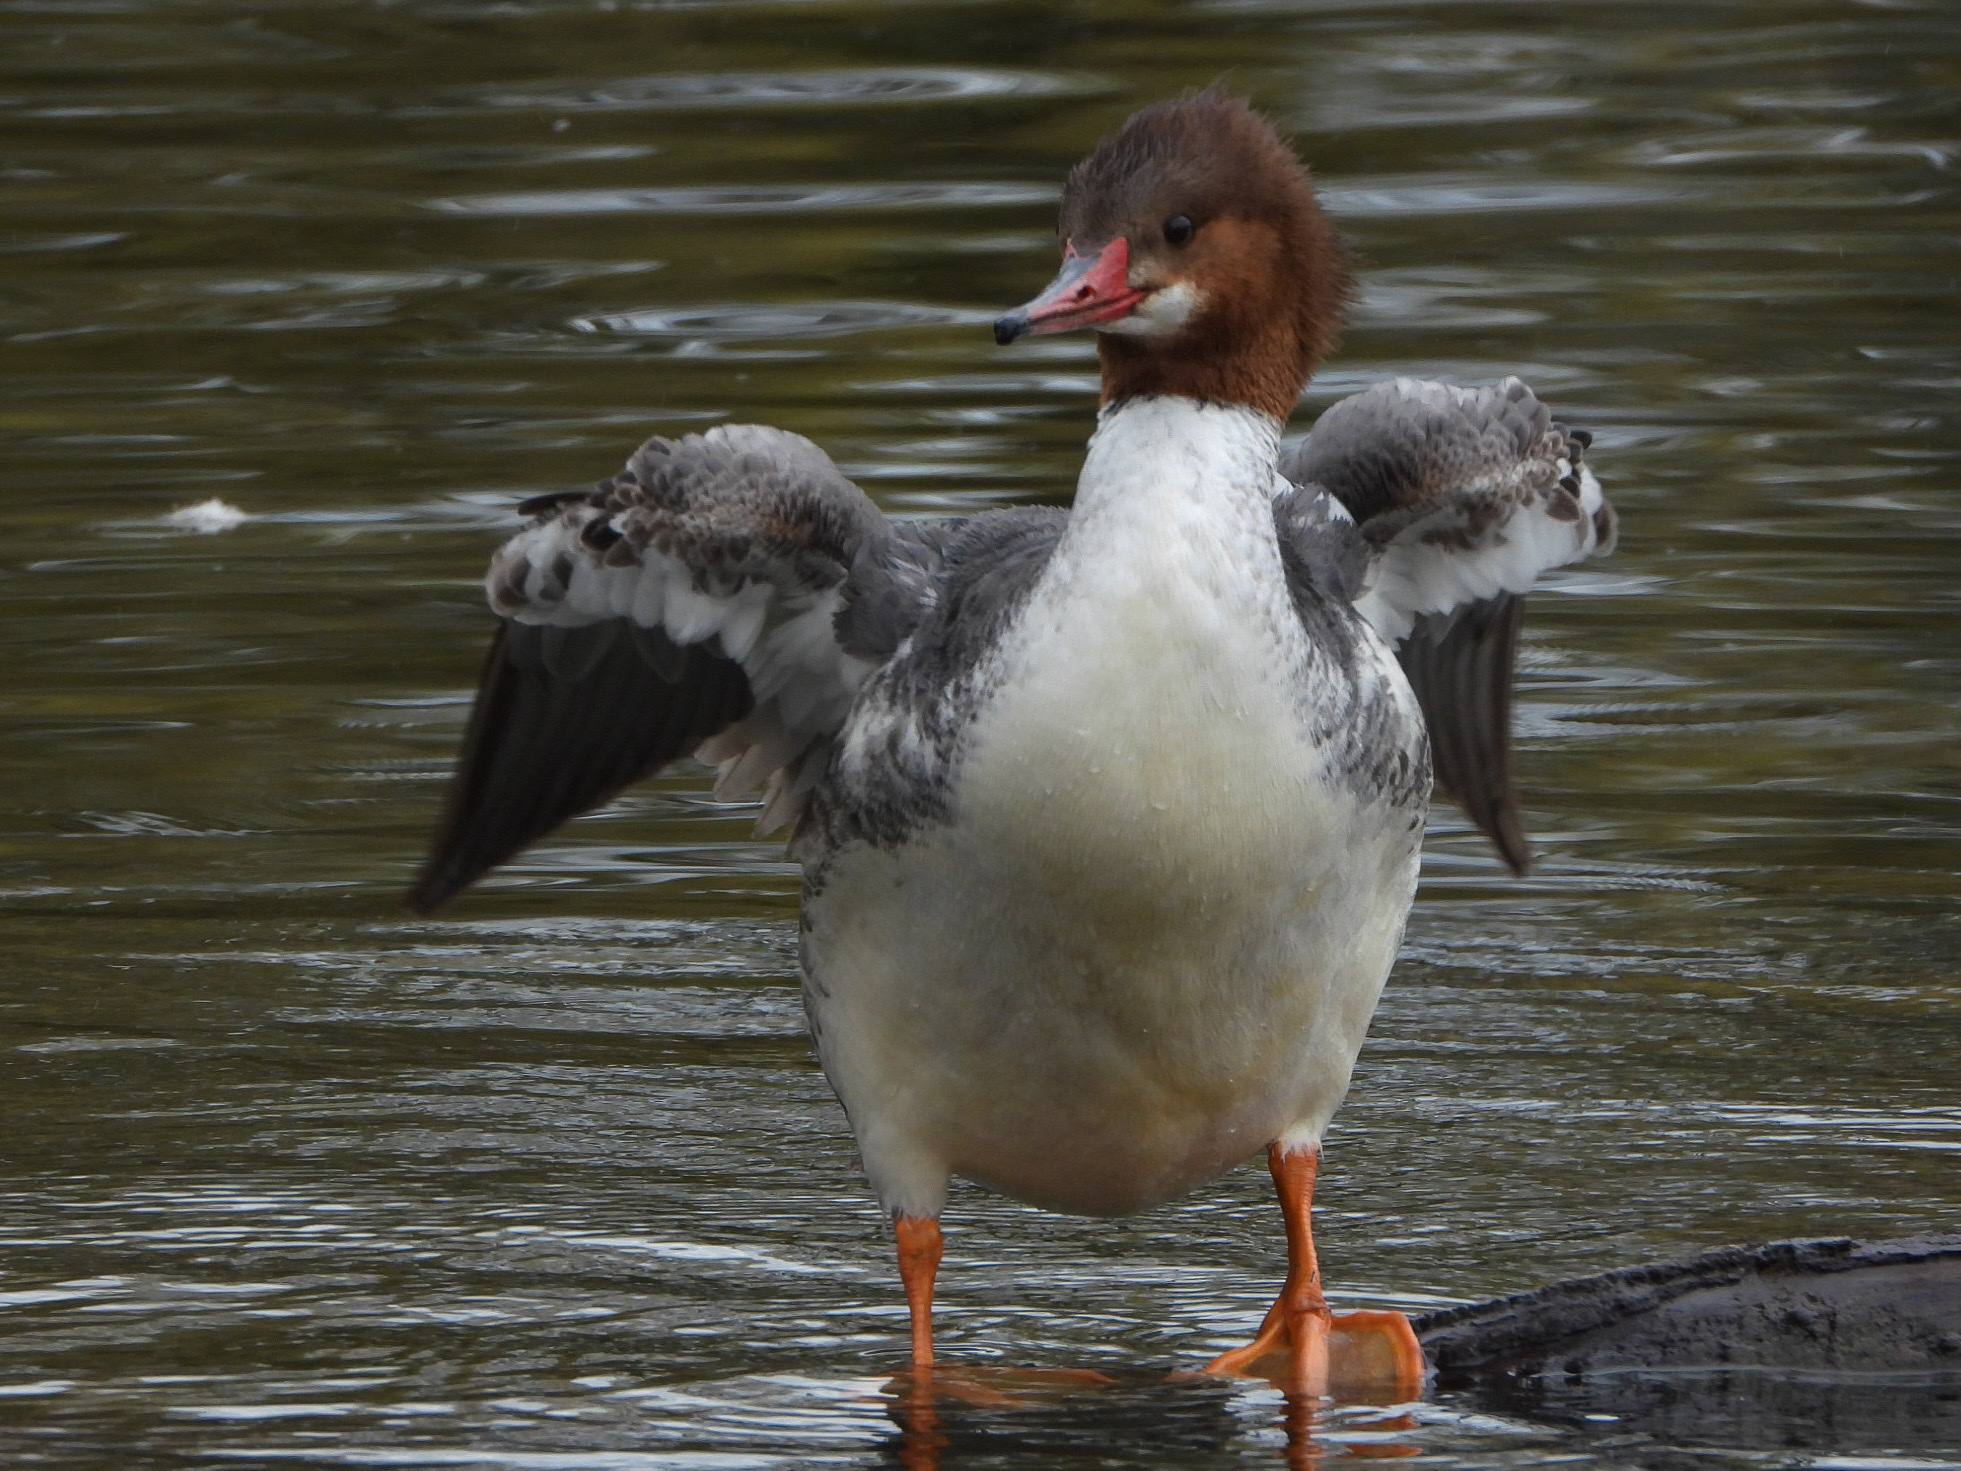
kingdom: Animalia
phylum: Chordata
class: Aves
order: Anseriformes
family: Anatidae
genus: Mergus
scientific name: Mergus merganser
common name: Common merganser
